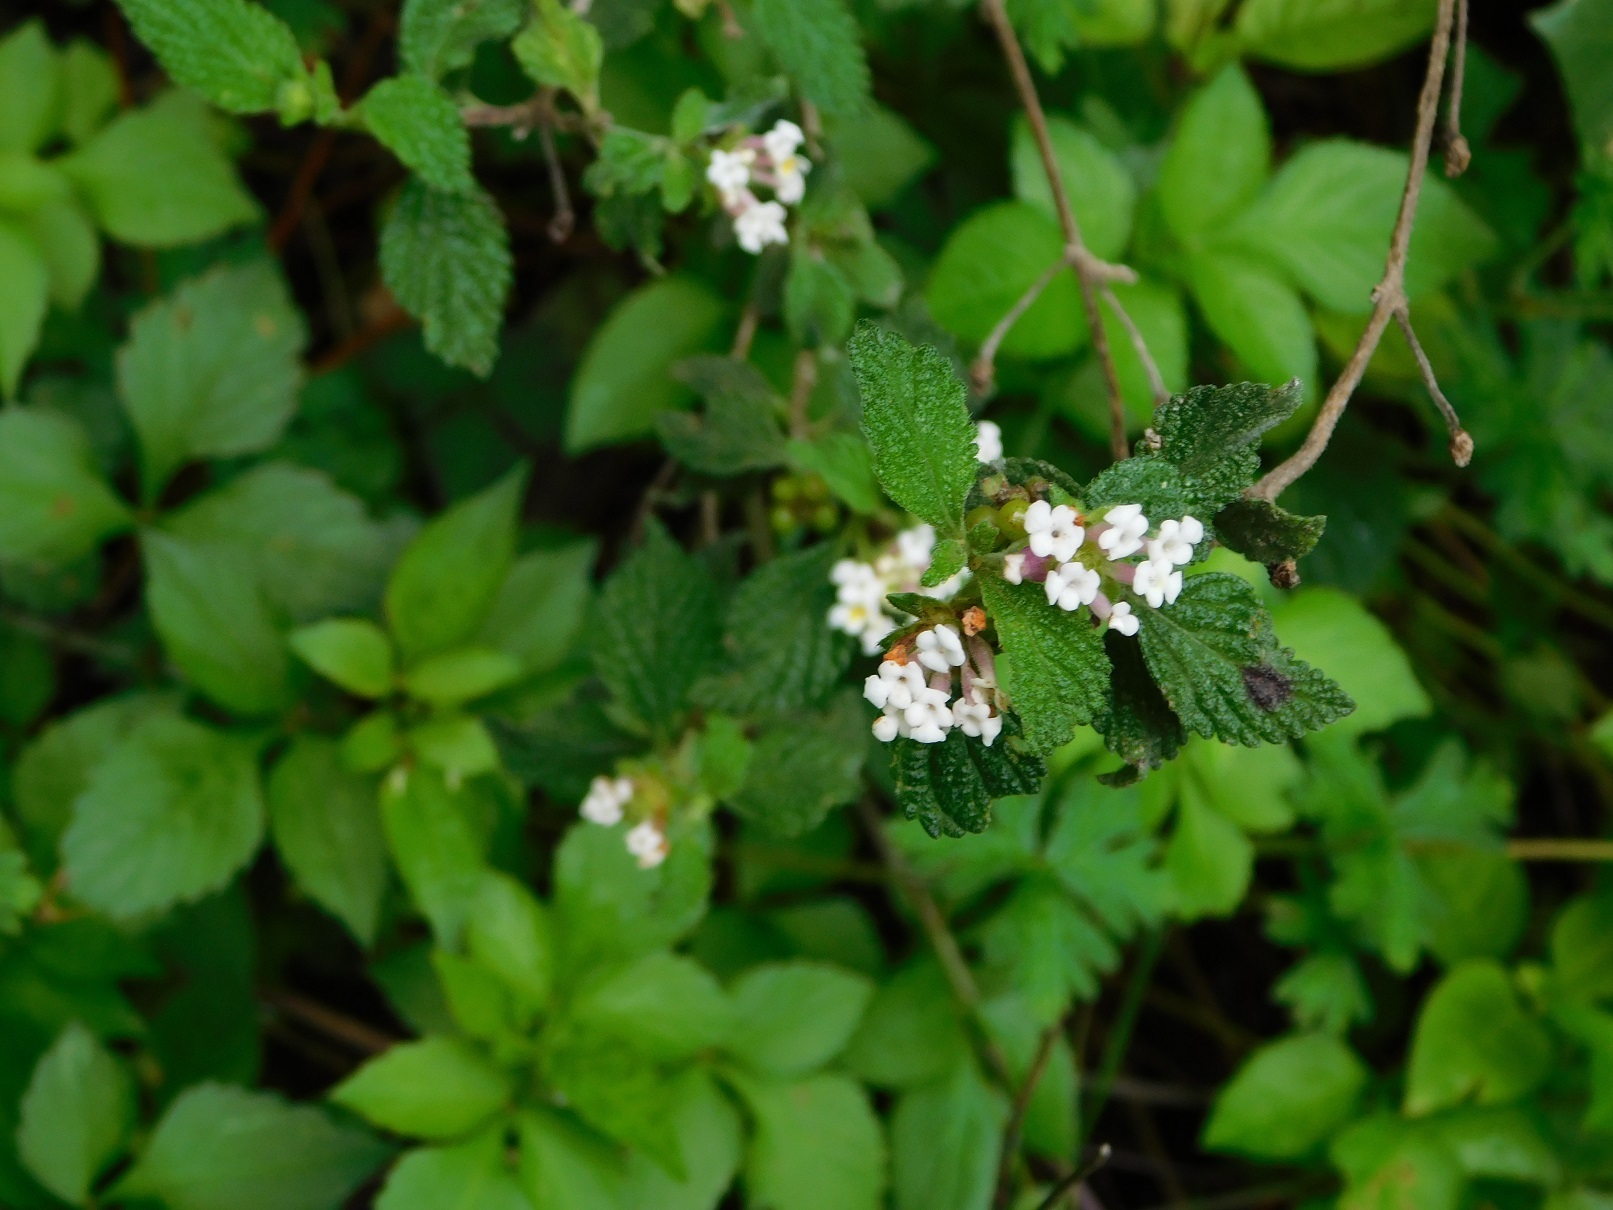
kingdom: Plantae
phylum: Tracheophyta
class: Magnoliopsida
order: Lamiales
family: Verbenaceae
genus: Lantana
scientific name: Lantana hirta
